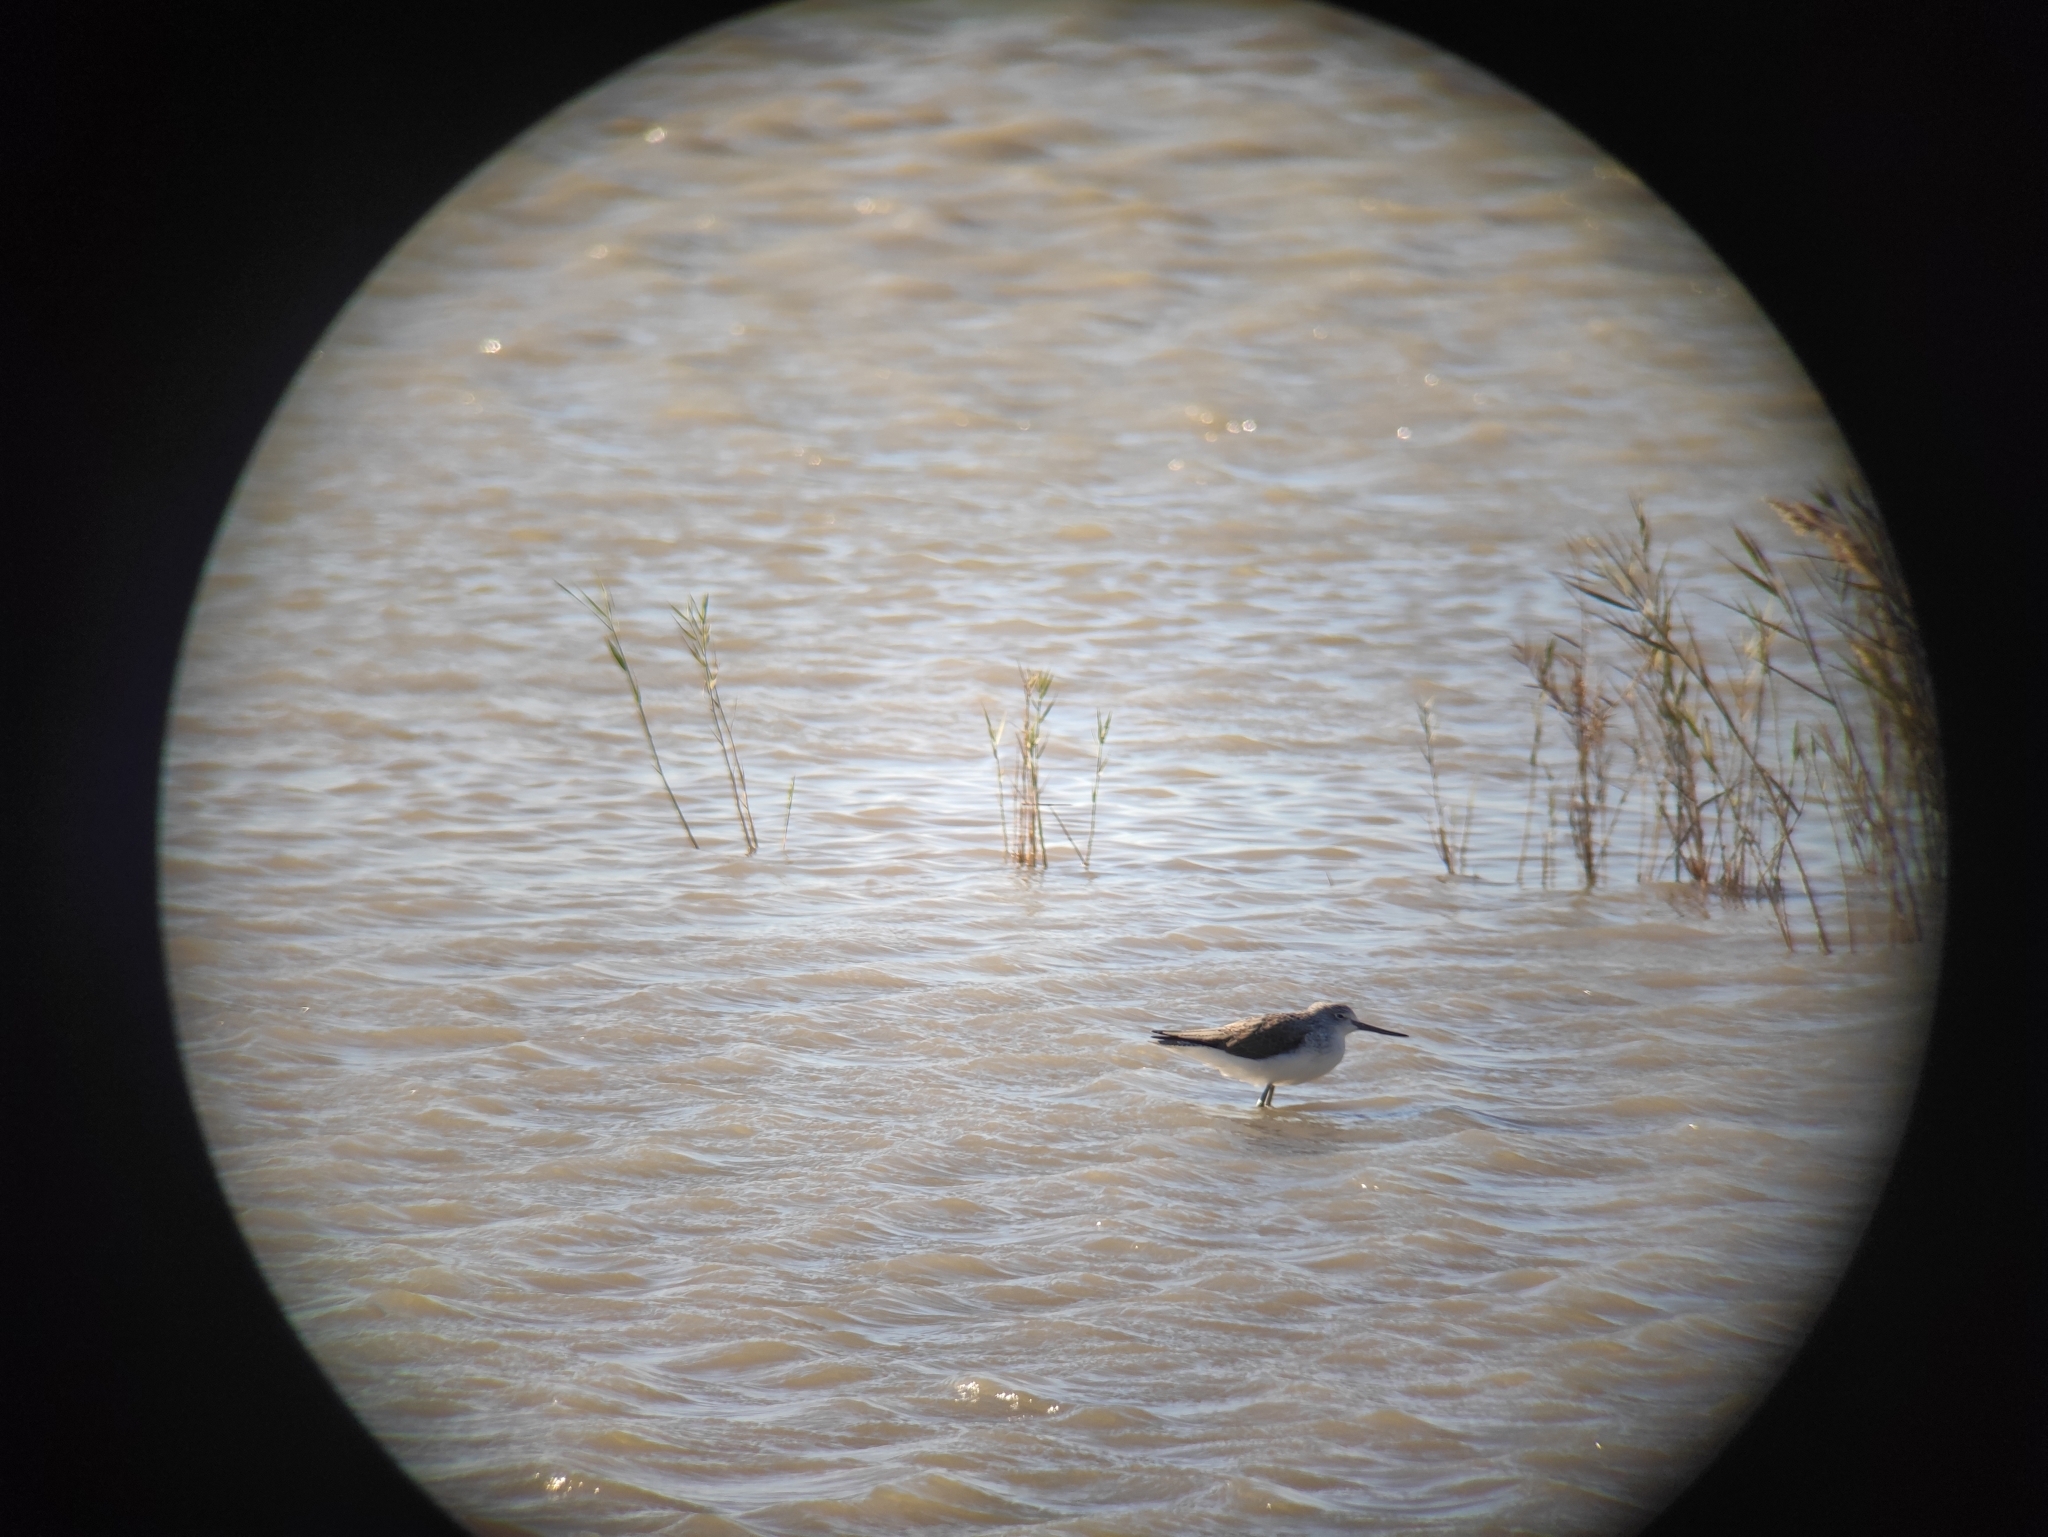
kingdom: Animalia
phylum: Chordata
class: Aves
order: Charadriiformes
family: Scolopacidae
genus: Tringa
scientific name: Tringa nebularia
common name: Common greenshank
